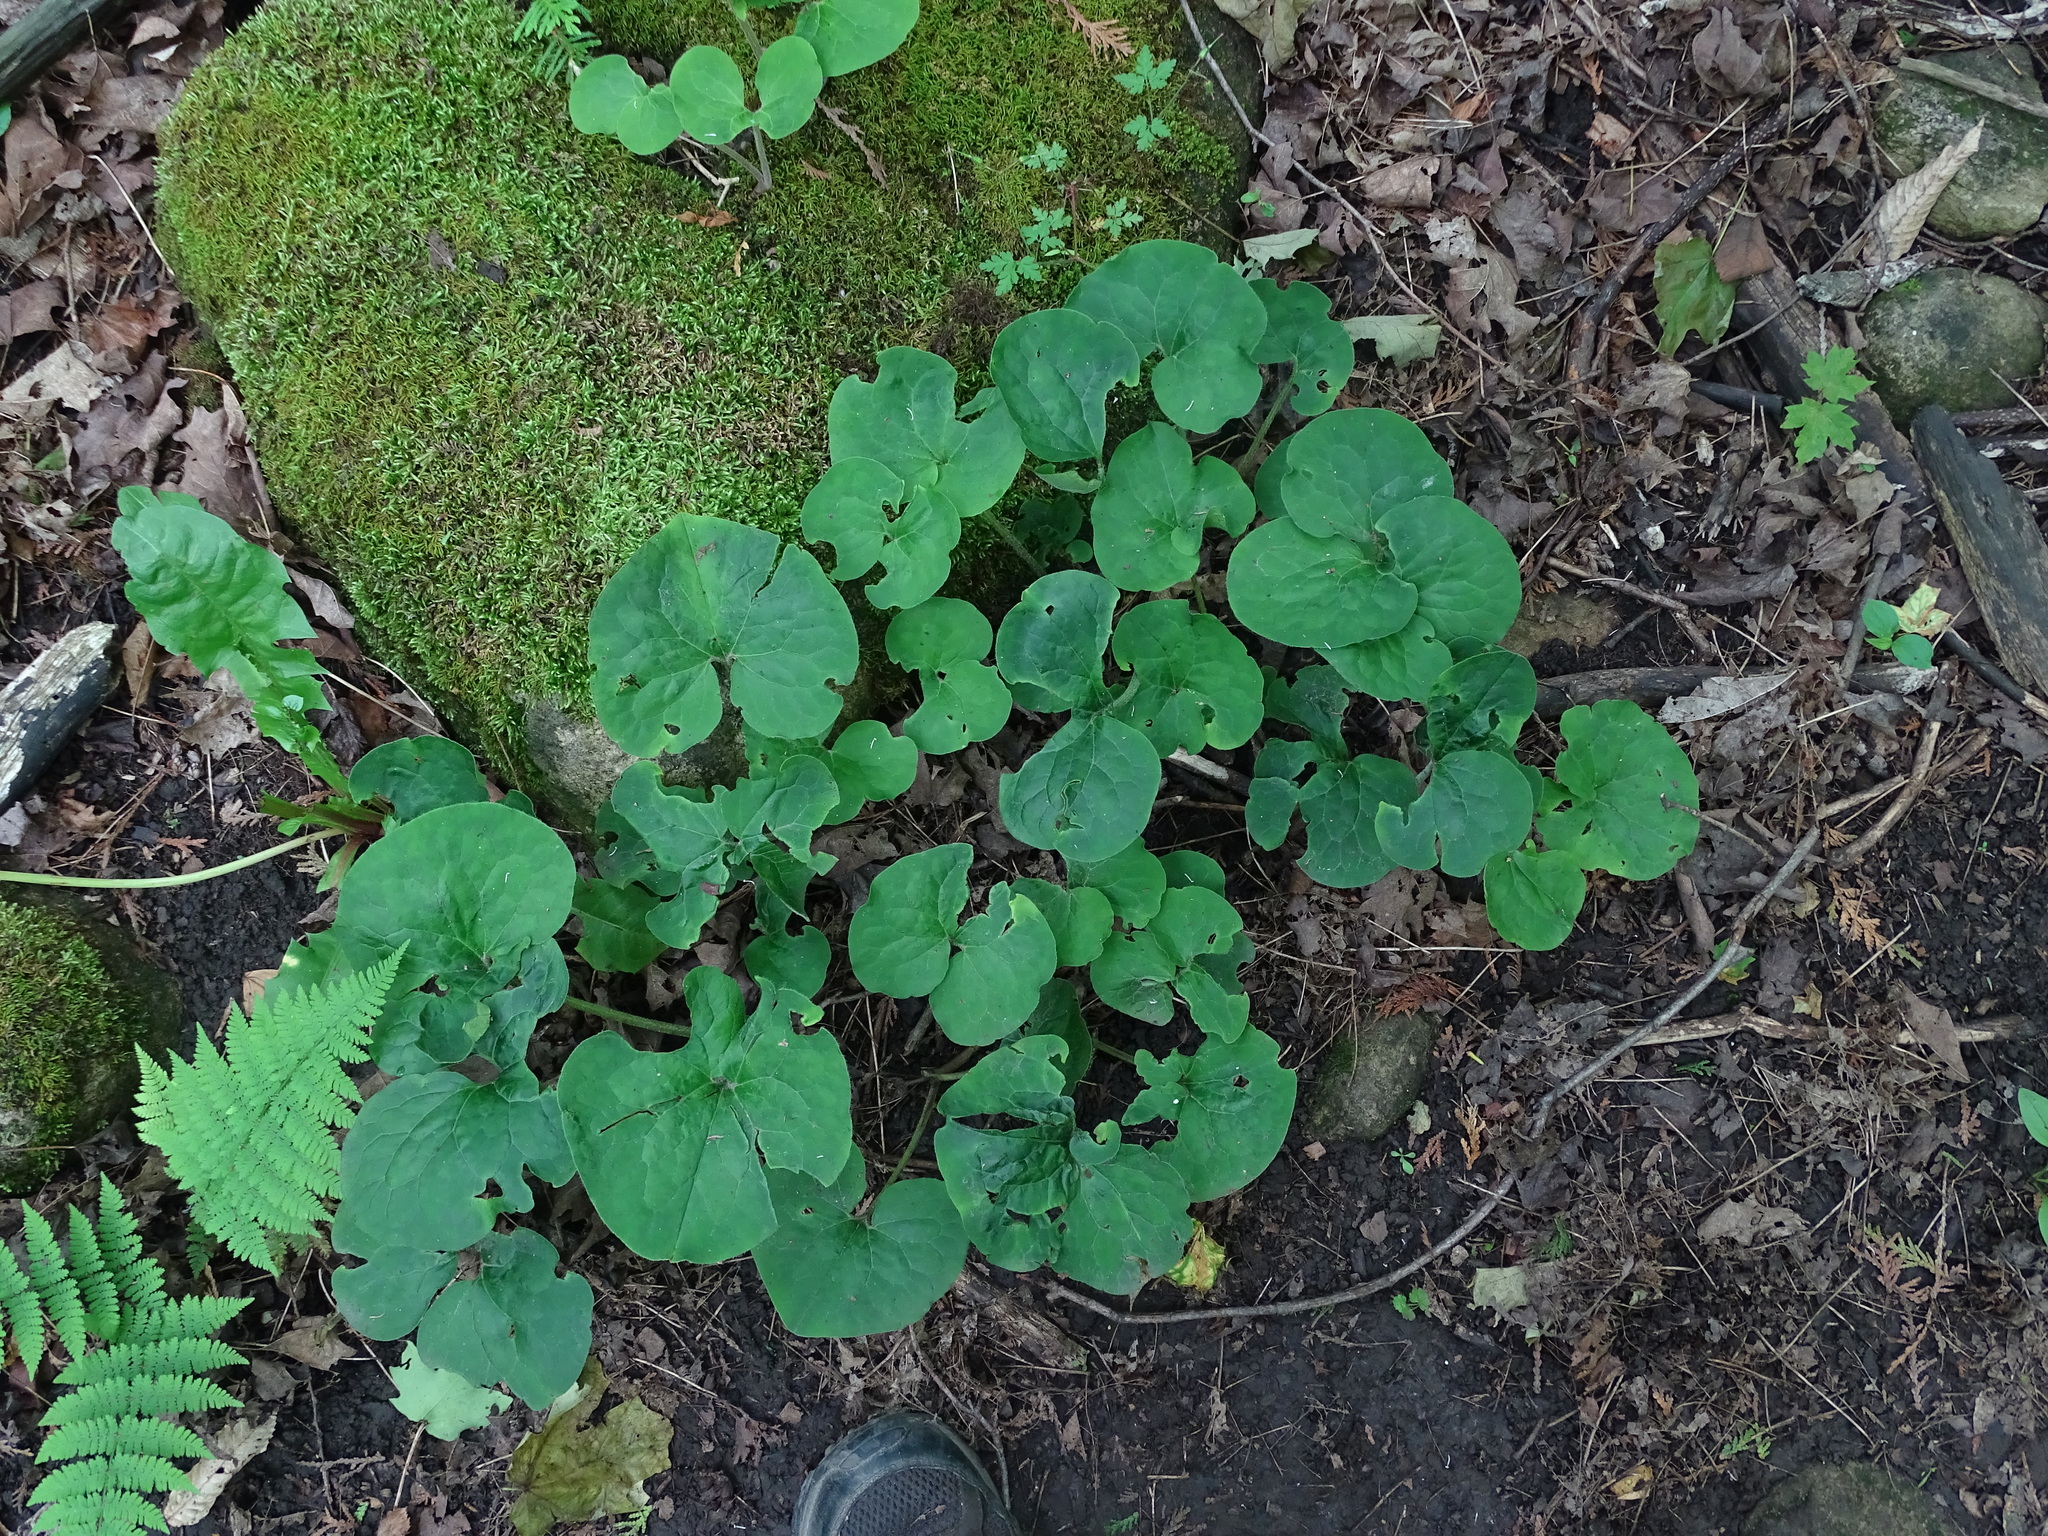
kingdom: Plantae
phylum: Tracheophyta
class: Magnoliopsida
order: Piperales
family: Aristolochiaceae
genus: Asarum
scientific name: Asarum canadense
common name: Wild ginger
